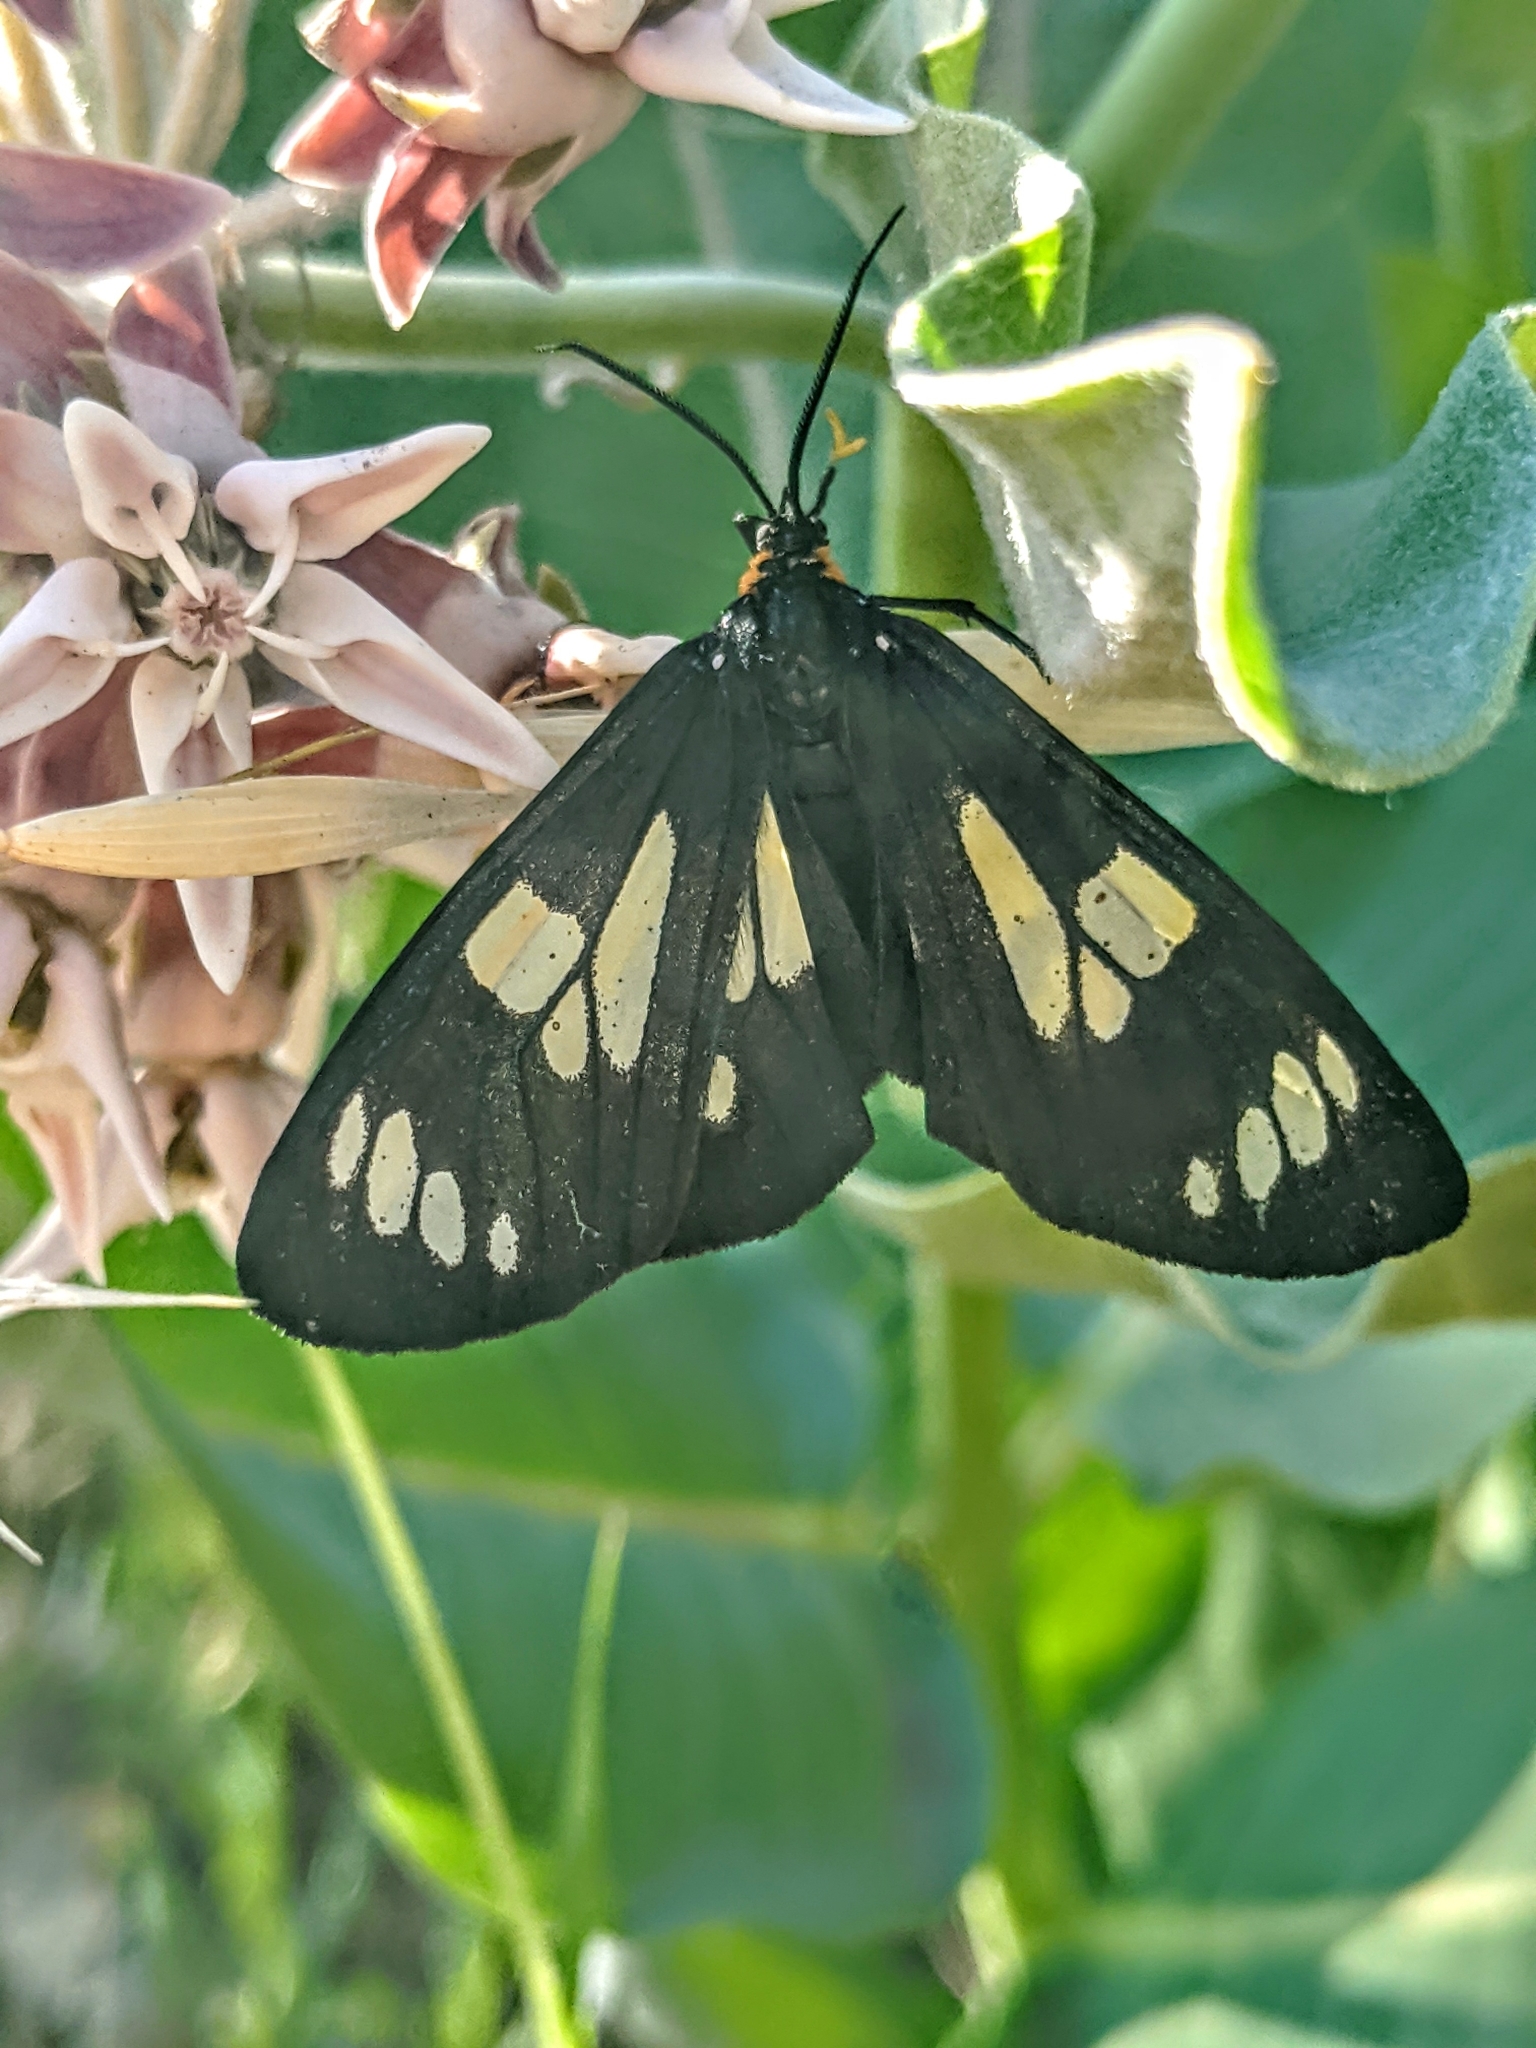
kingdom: Animalia
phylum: Arthropoda
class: Insecta
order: Lepidoptera
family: Erebidae
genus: Gnophaela
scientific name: Gnophaela latipennis
